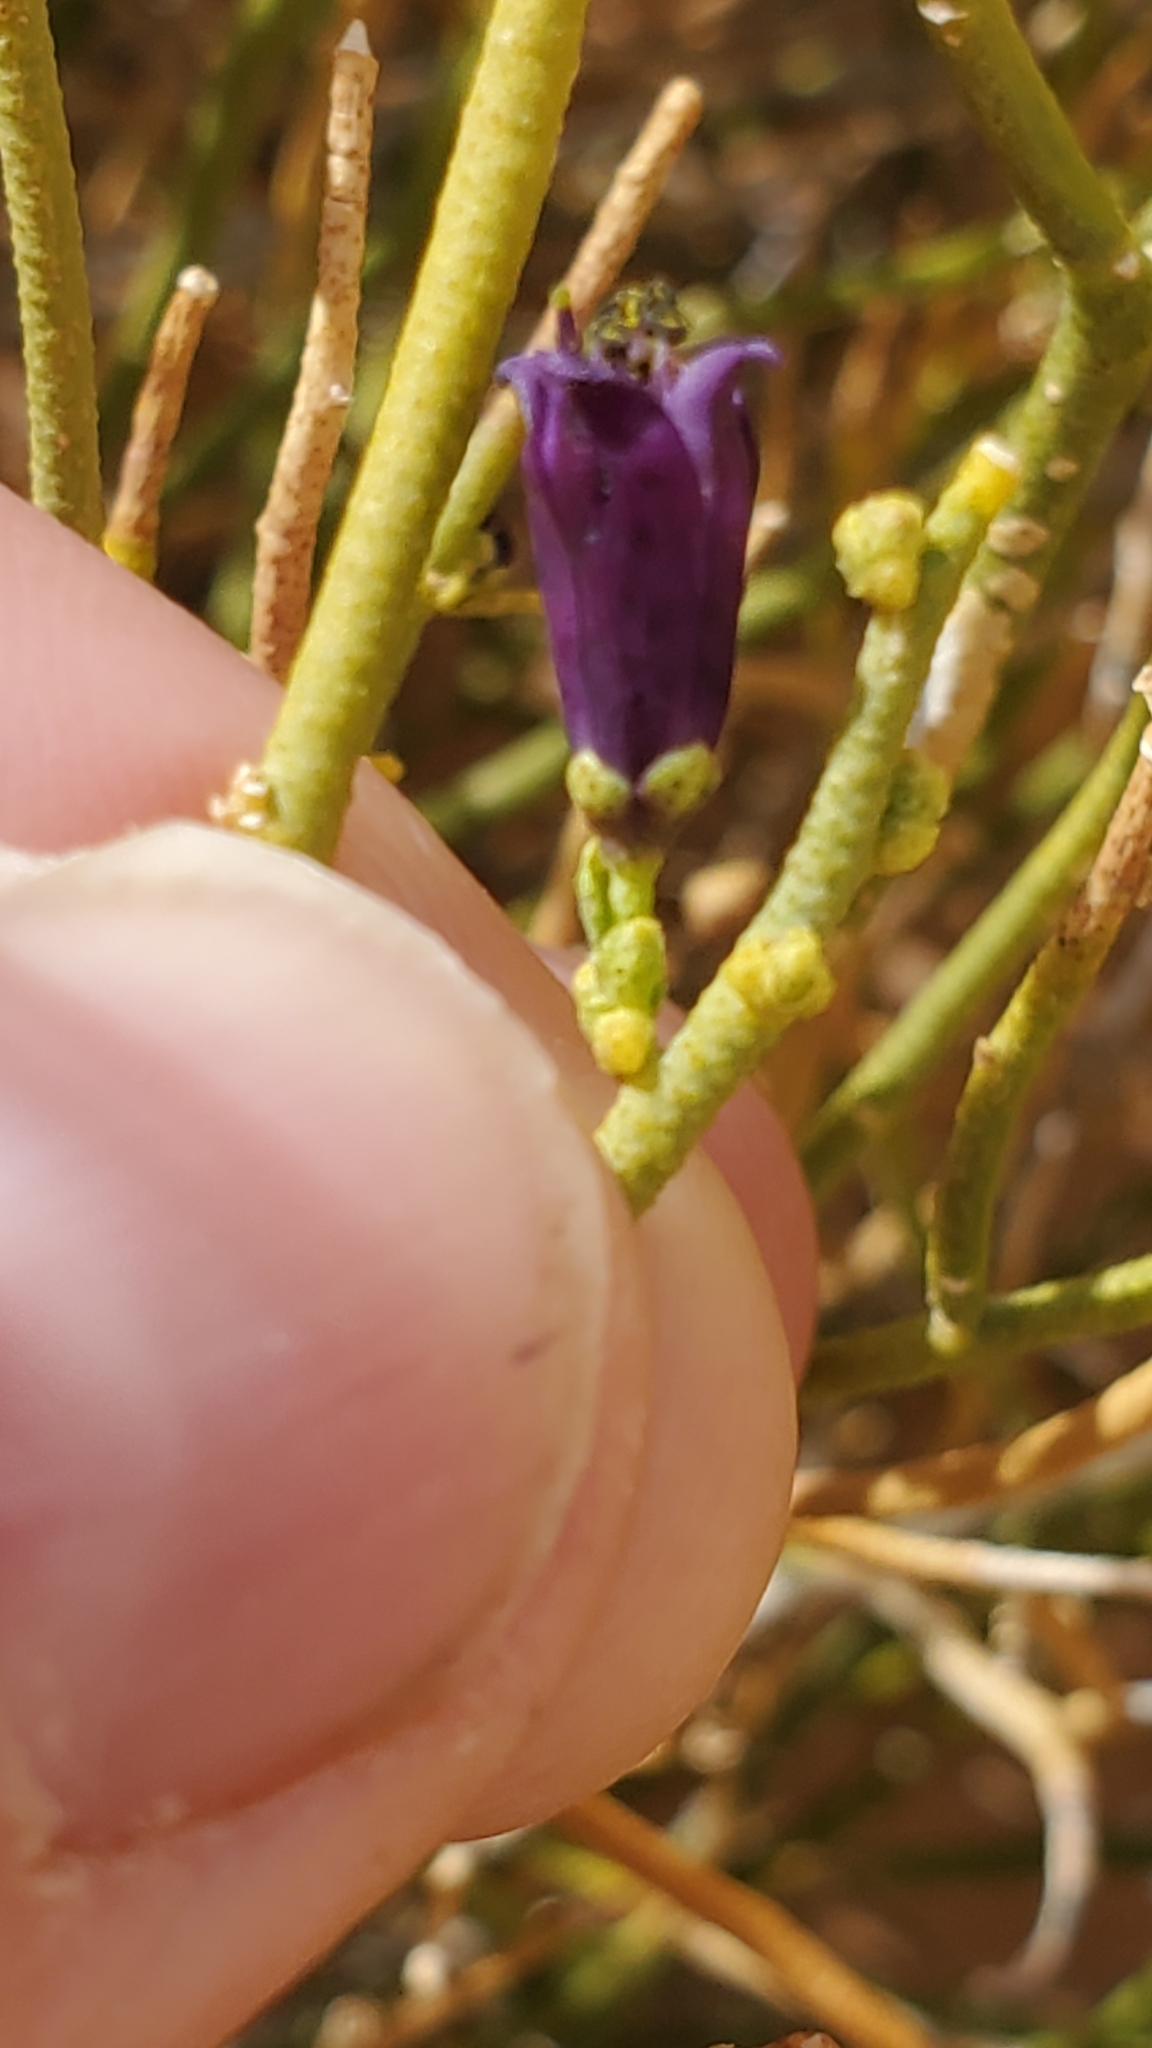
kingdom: Plantae
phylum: Tracheophyta
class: Magnoliopsida
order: Sapindales
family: Rutaceae
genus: Thamnosma
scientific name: Thamnosma montana
